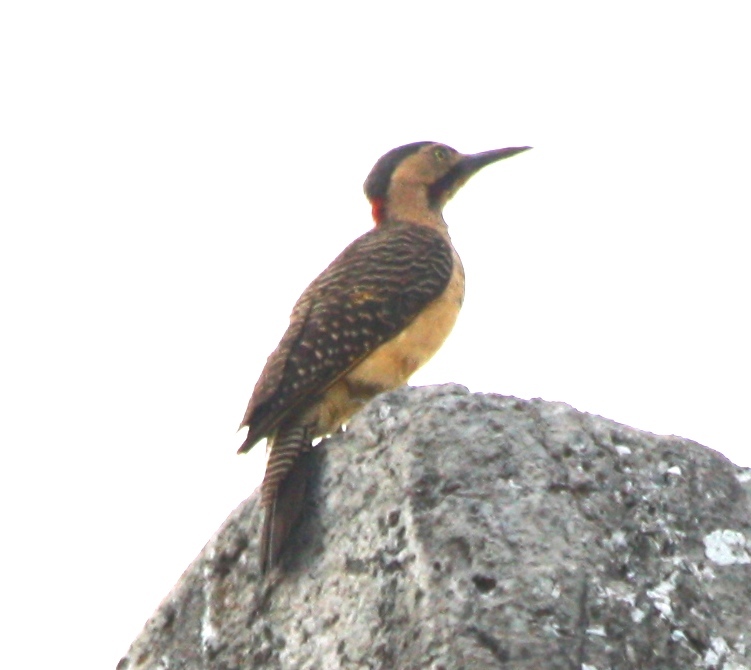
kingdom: Animalia
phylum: Chordata
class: Aves
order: Piciformes
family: Picidae
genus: Colaptes
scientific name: Colaptes rupicola
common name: Andean flicker
